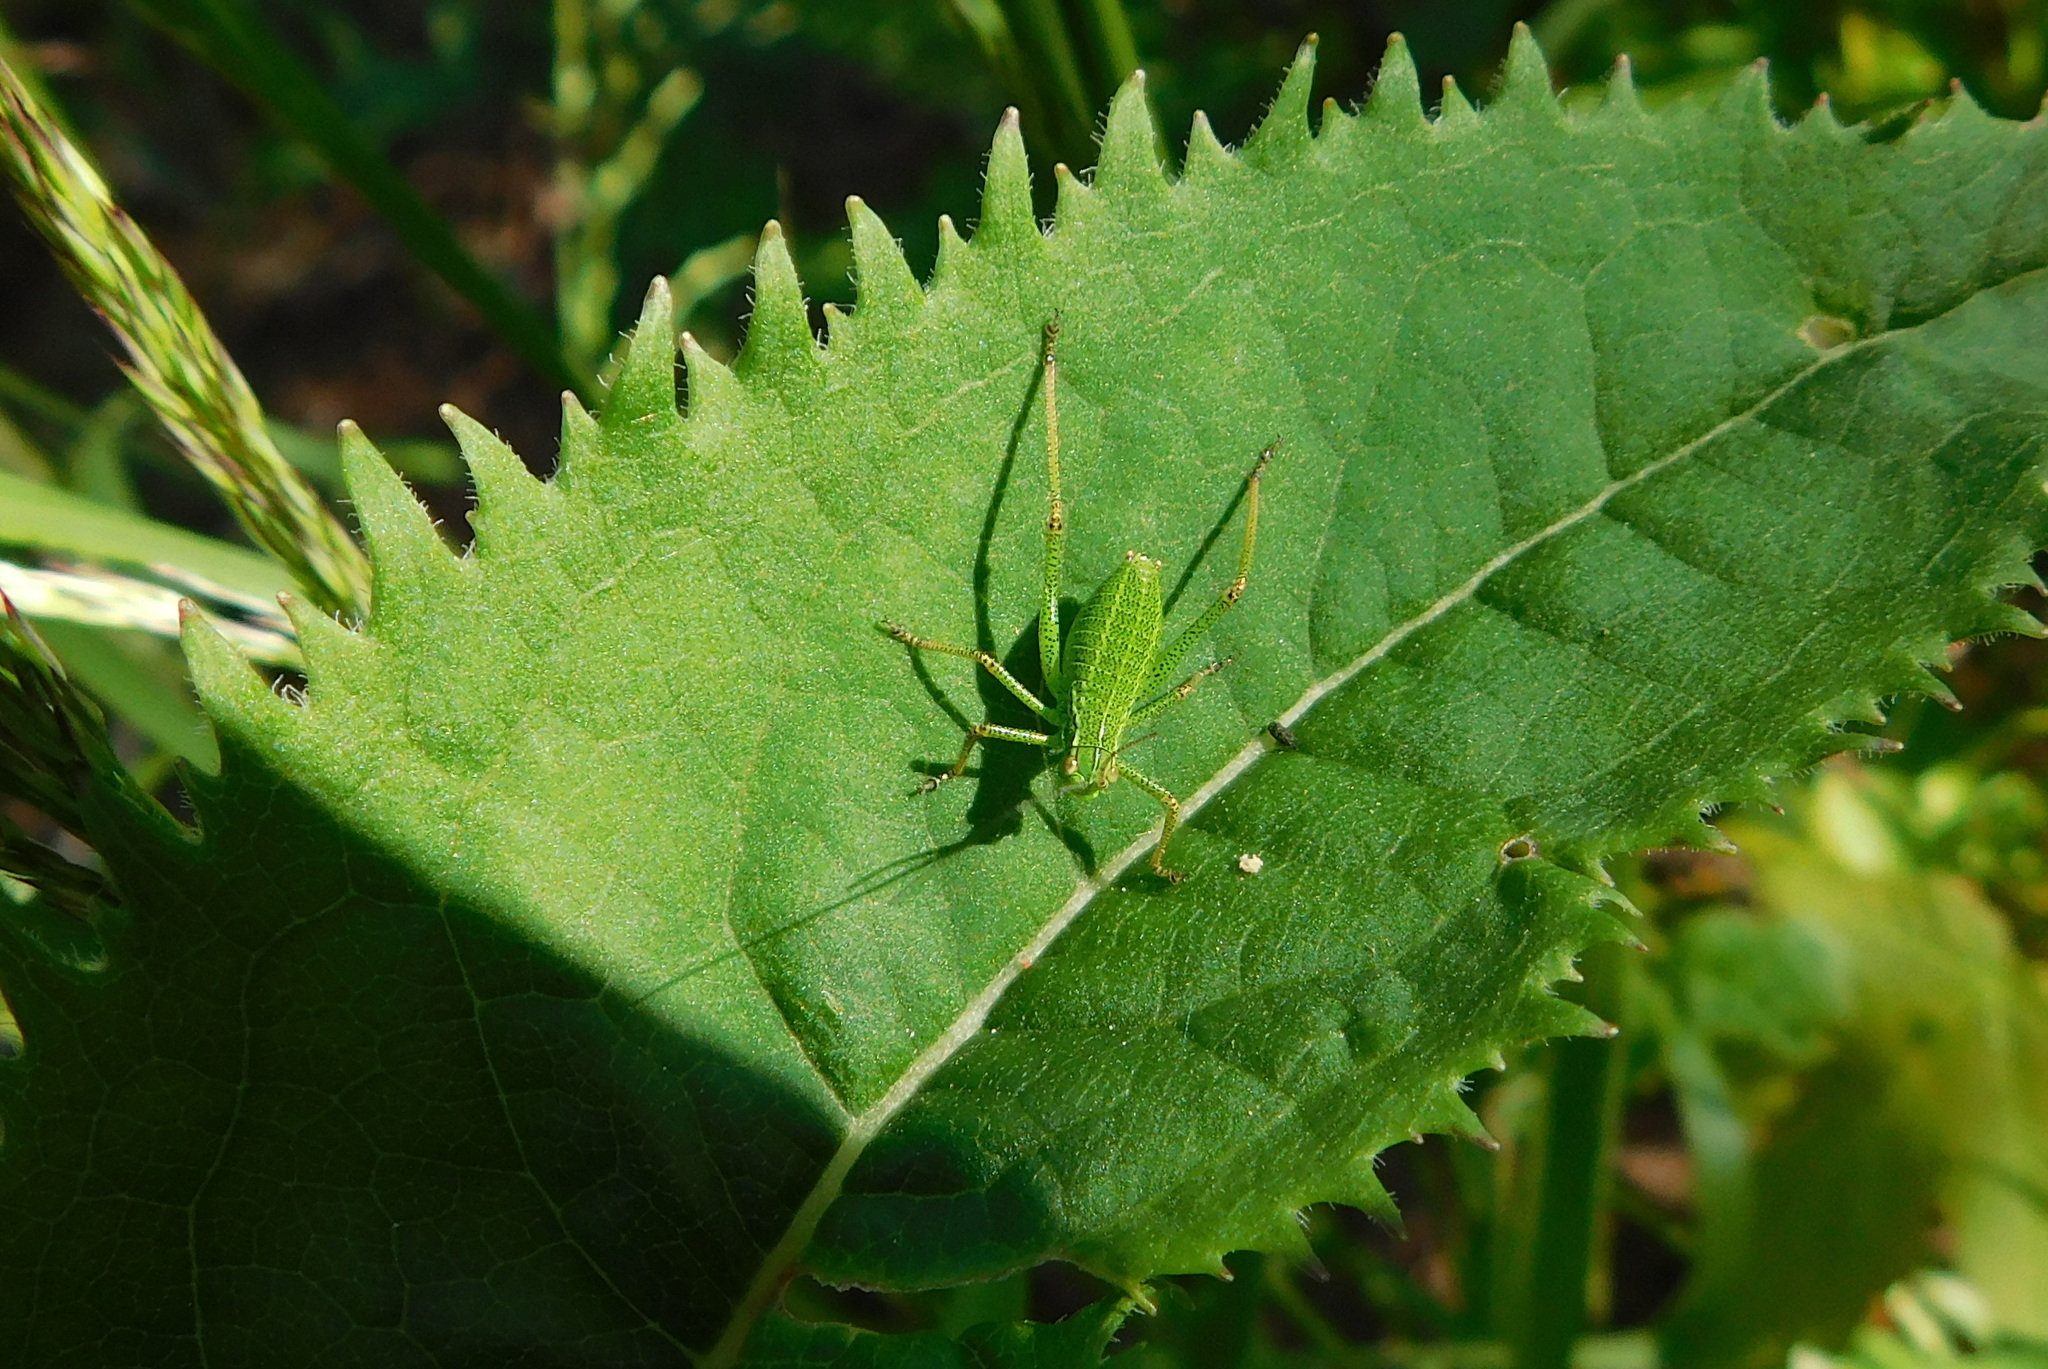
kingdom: Animalia
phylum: Arthropoda
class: Insecta
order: Orthoptera
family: Tettigoniidae
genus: Barbitistes
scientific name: Barbitistes constrictus
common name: Eastern saw-tailed bush cricket
